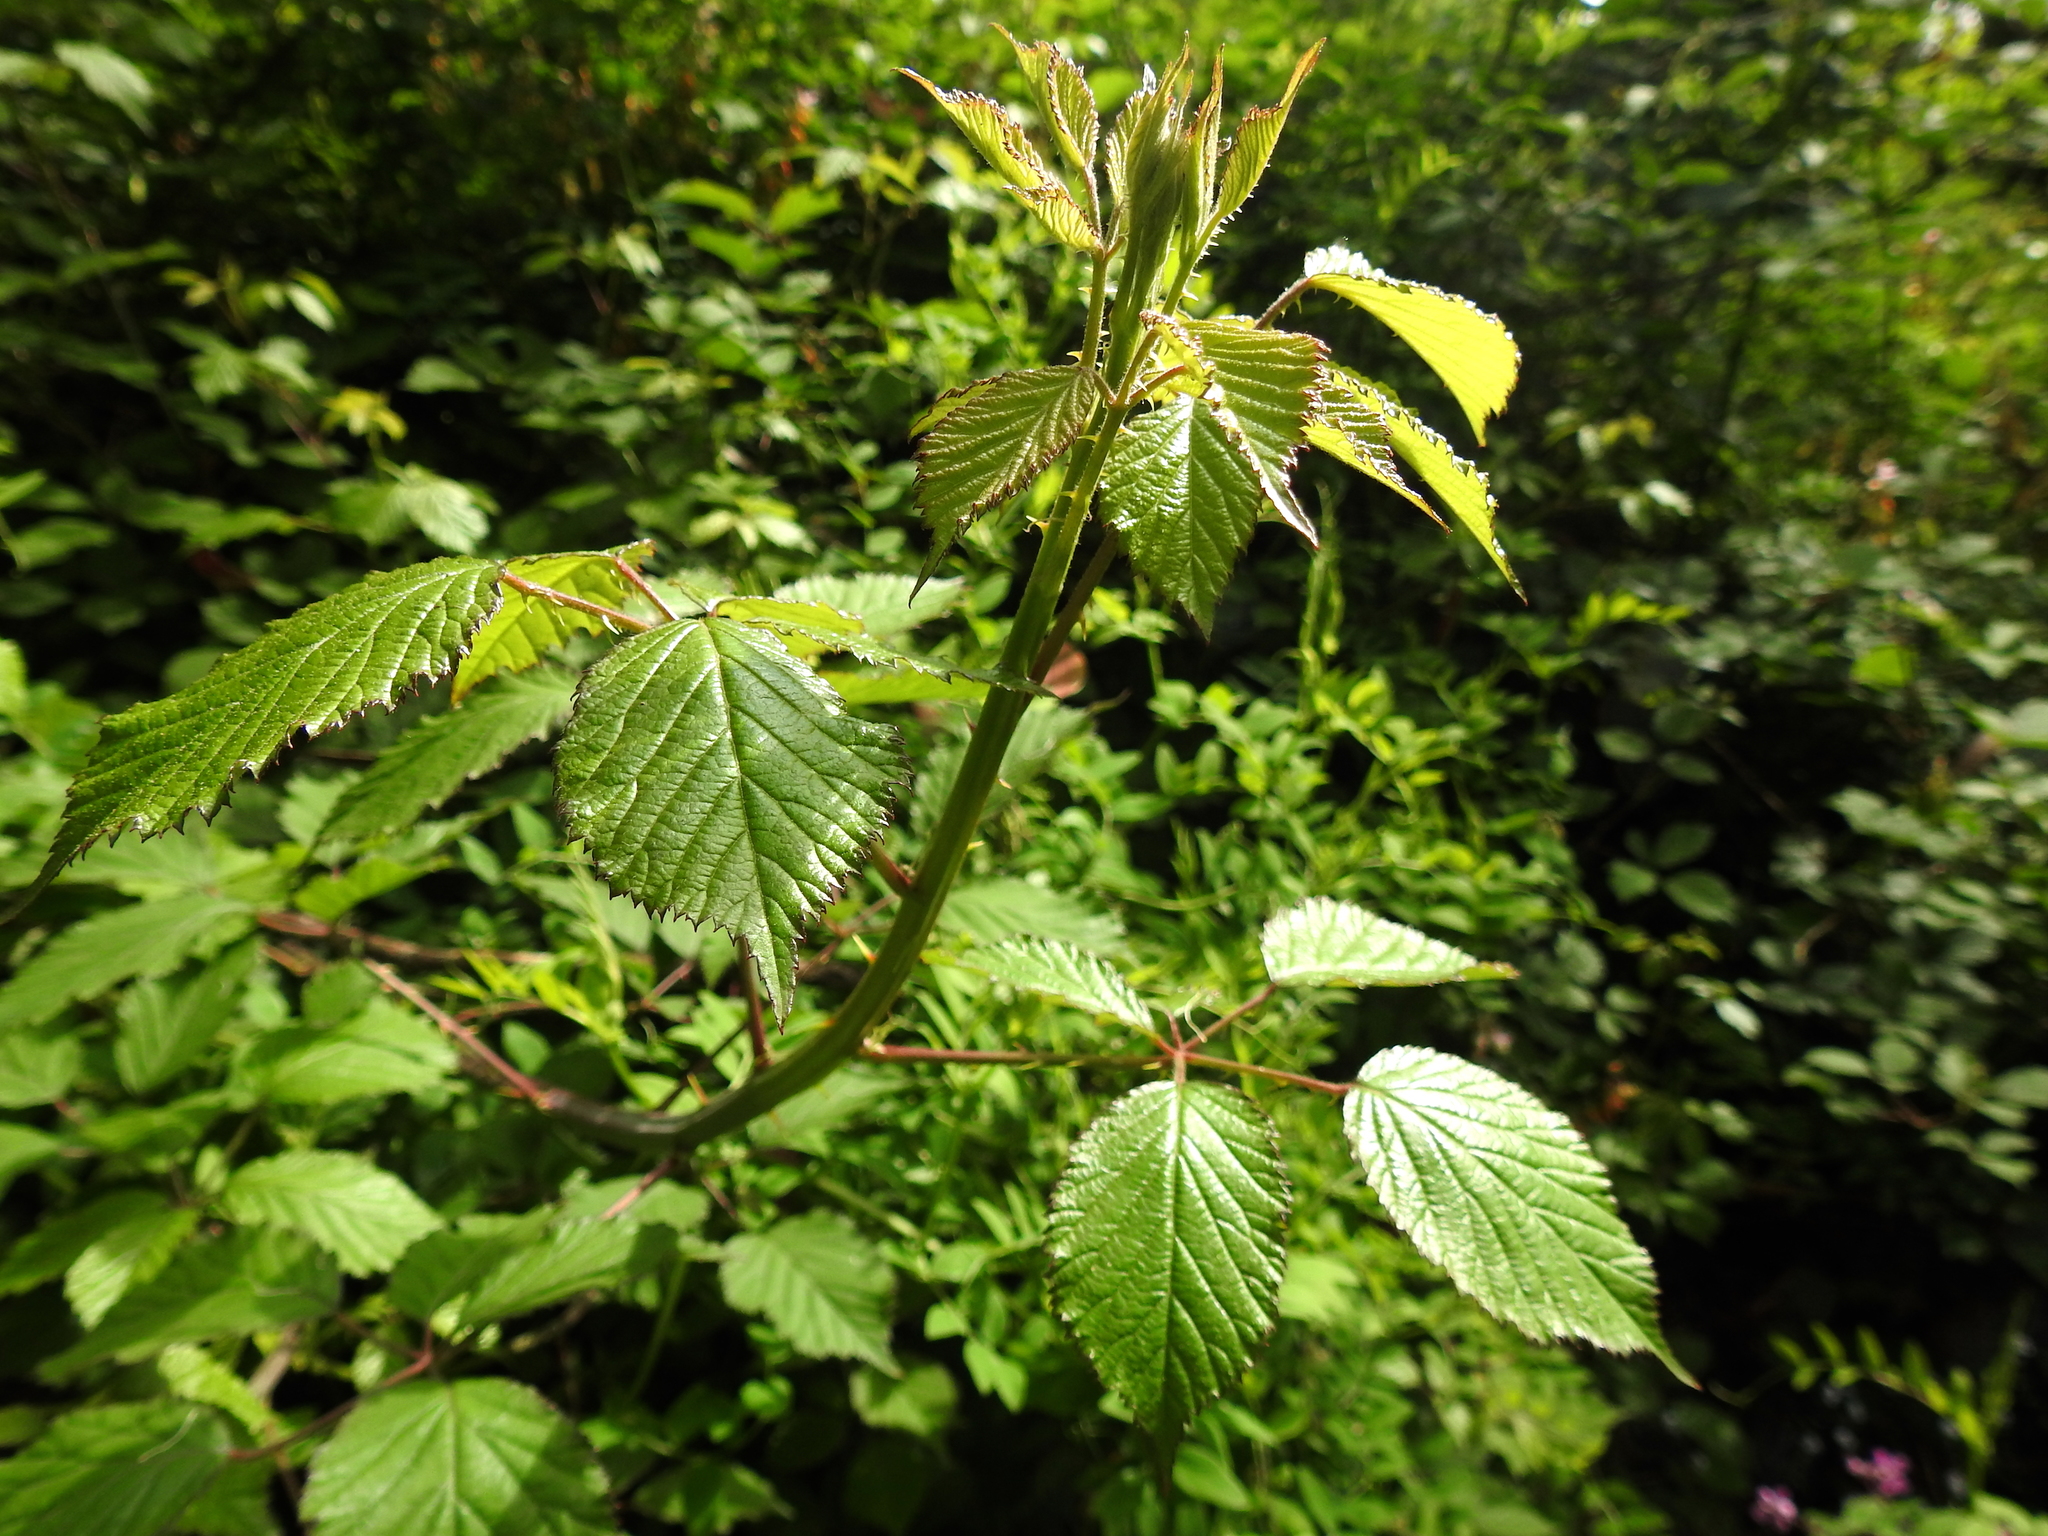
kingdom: Plantae
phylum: Tracheophyta
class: Magnoliopsida
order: Rosales
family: Rosaceae
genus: Rubus
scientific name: Rubus armeniacus
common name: Himalayan blackberry
